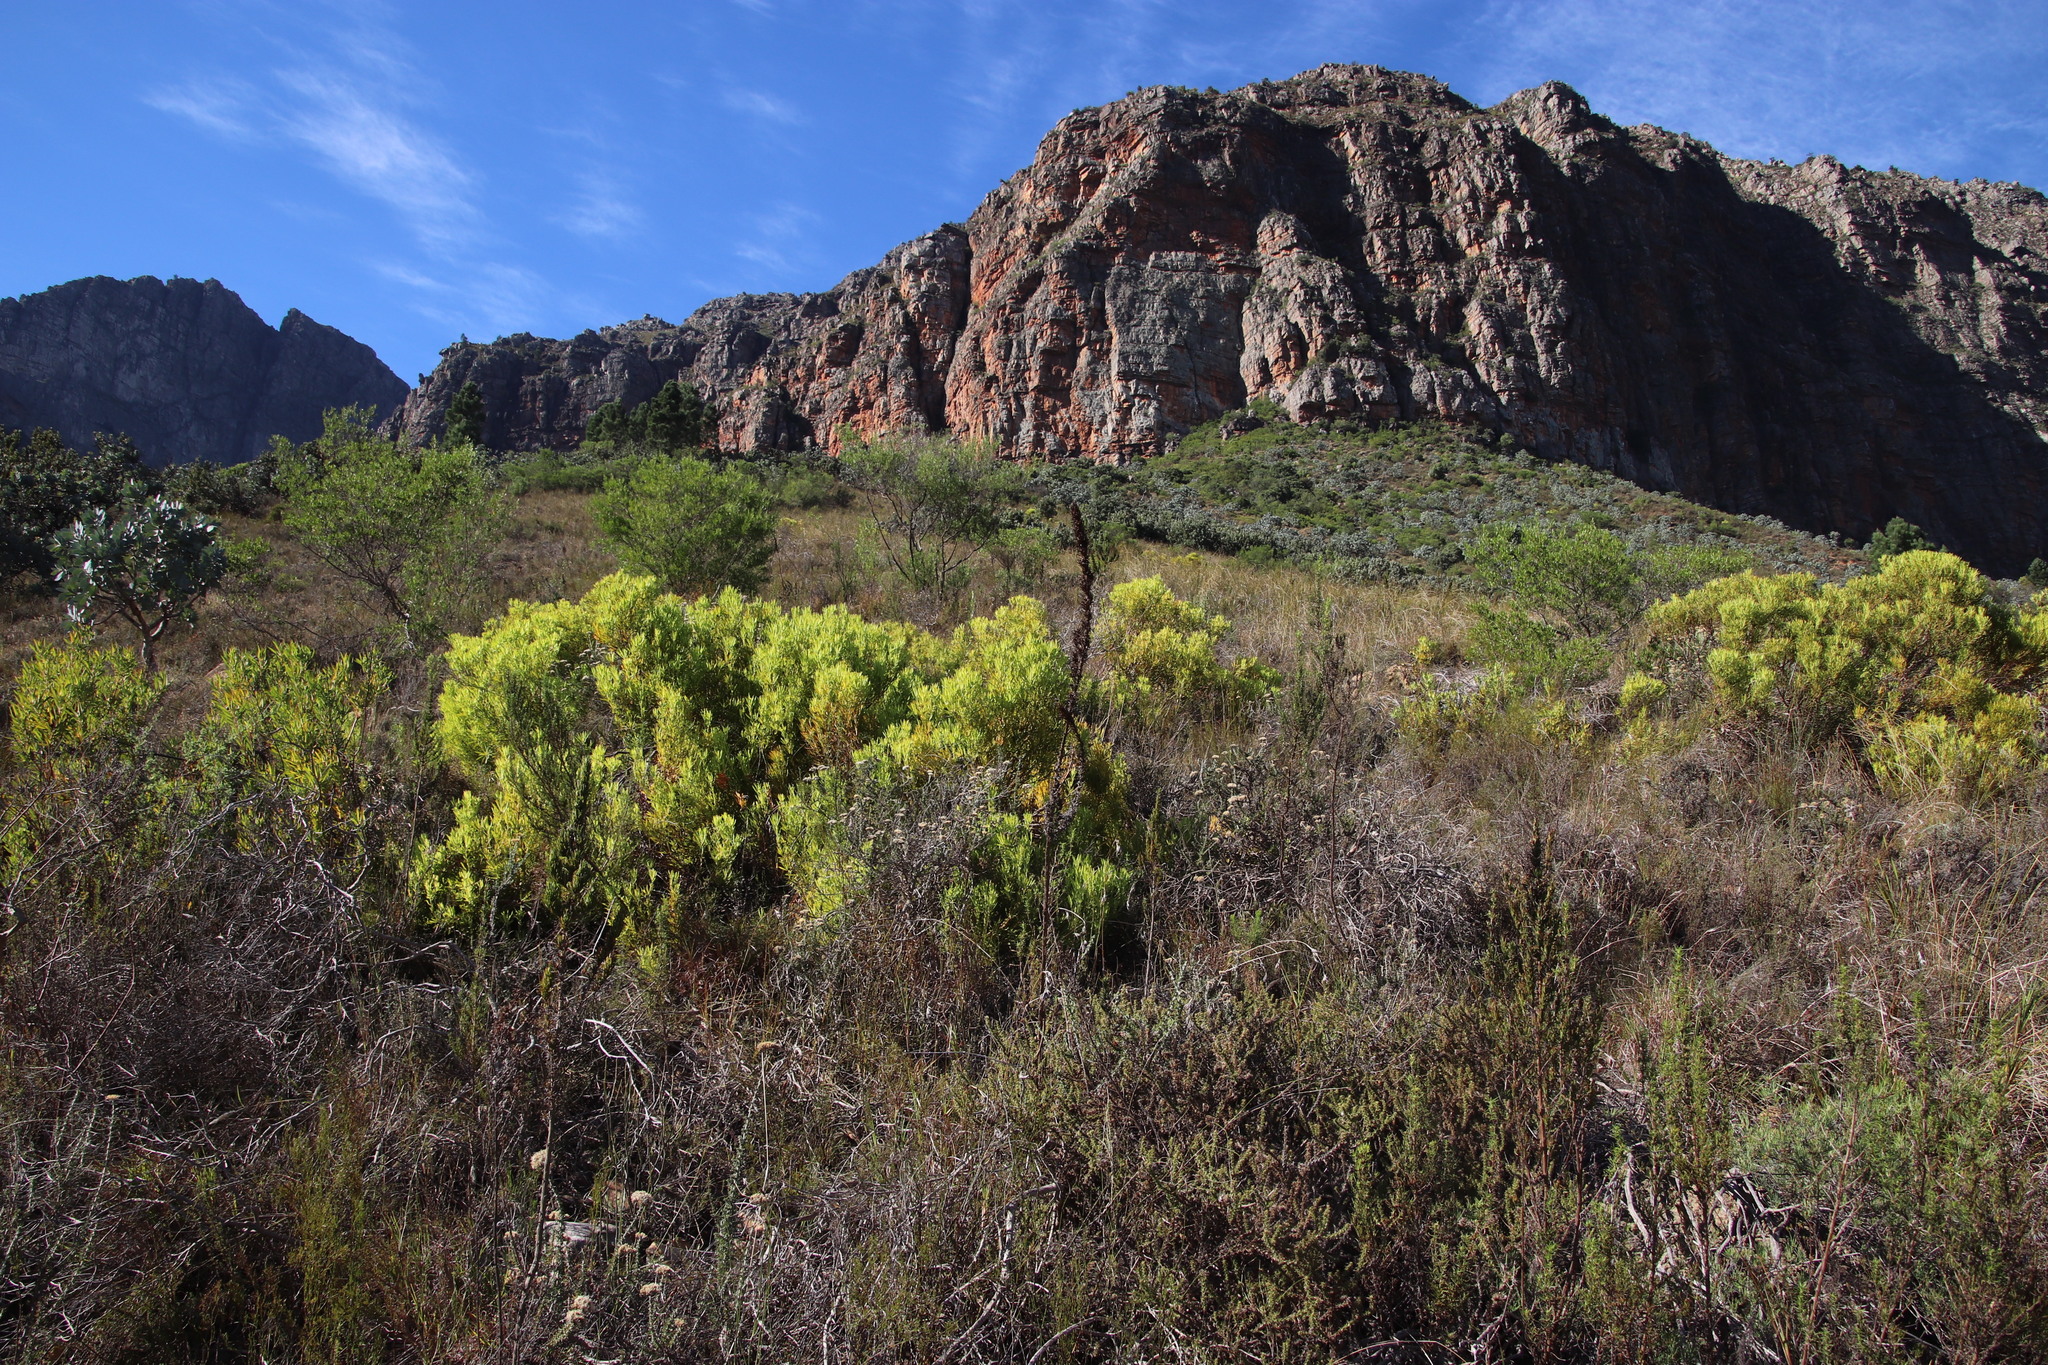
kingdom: Plantae
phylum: Tracheophyta
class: Magnoliopsida
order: Proteales
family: Proteaceae
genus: Leucadendron
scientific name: Leucadendron salignum
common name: Common sunshine conebush
